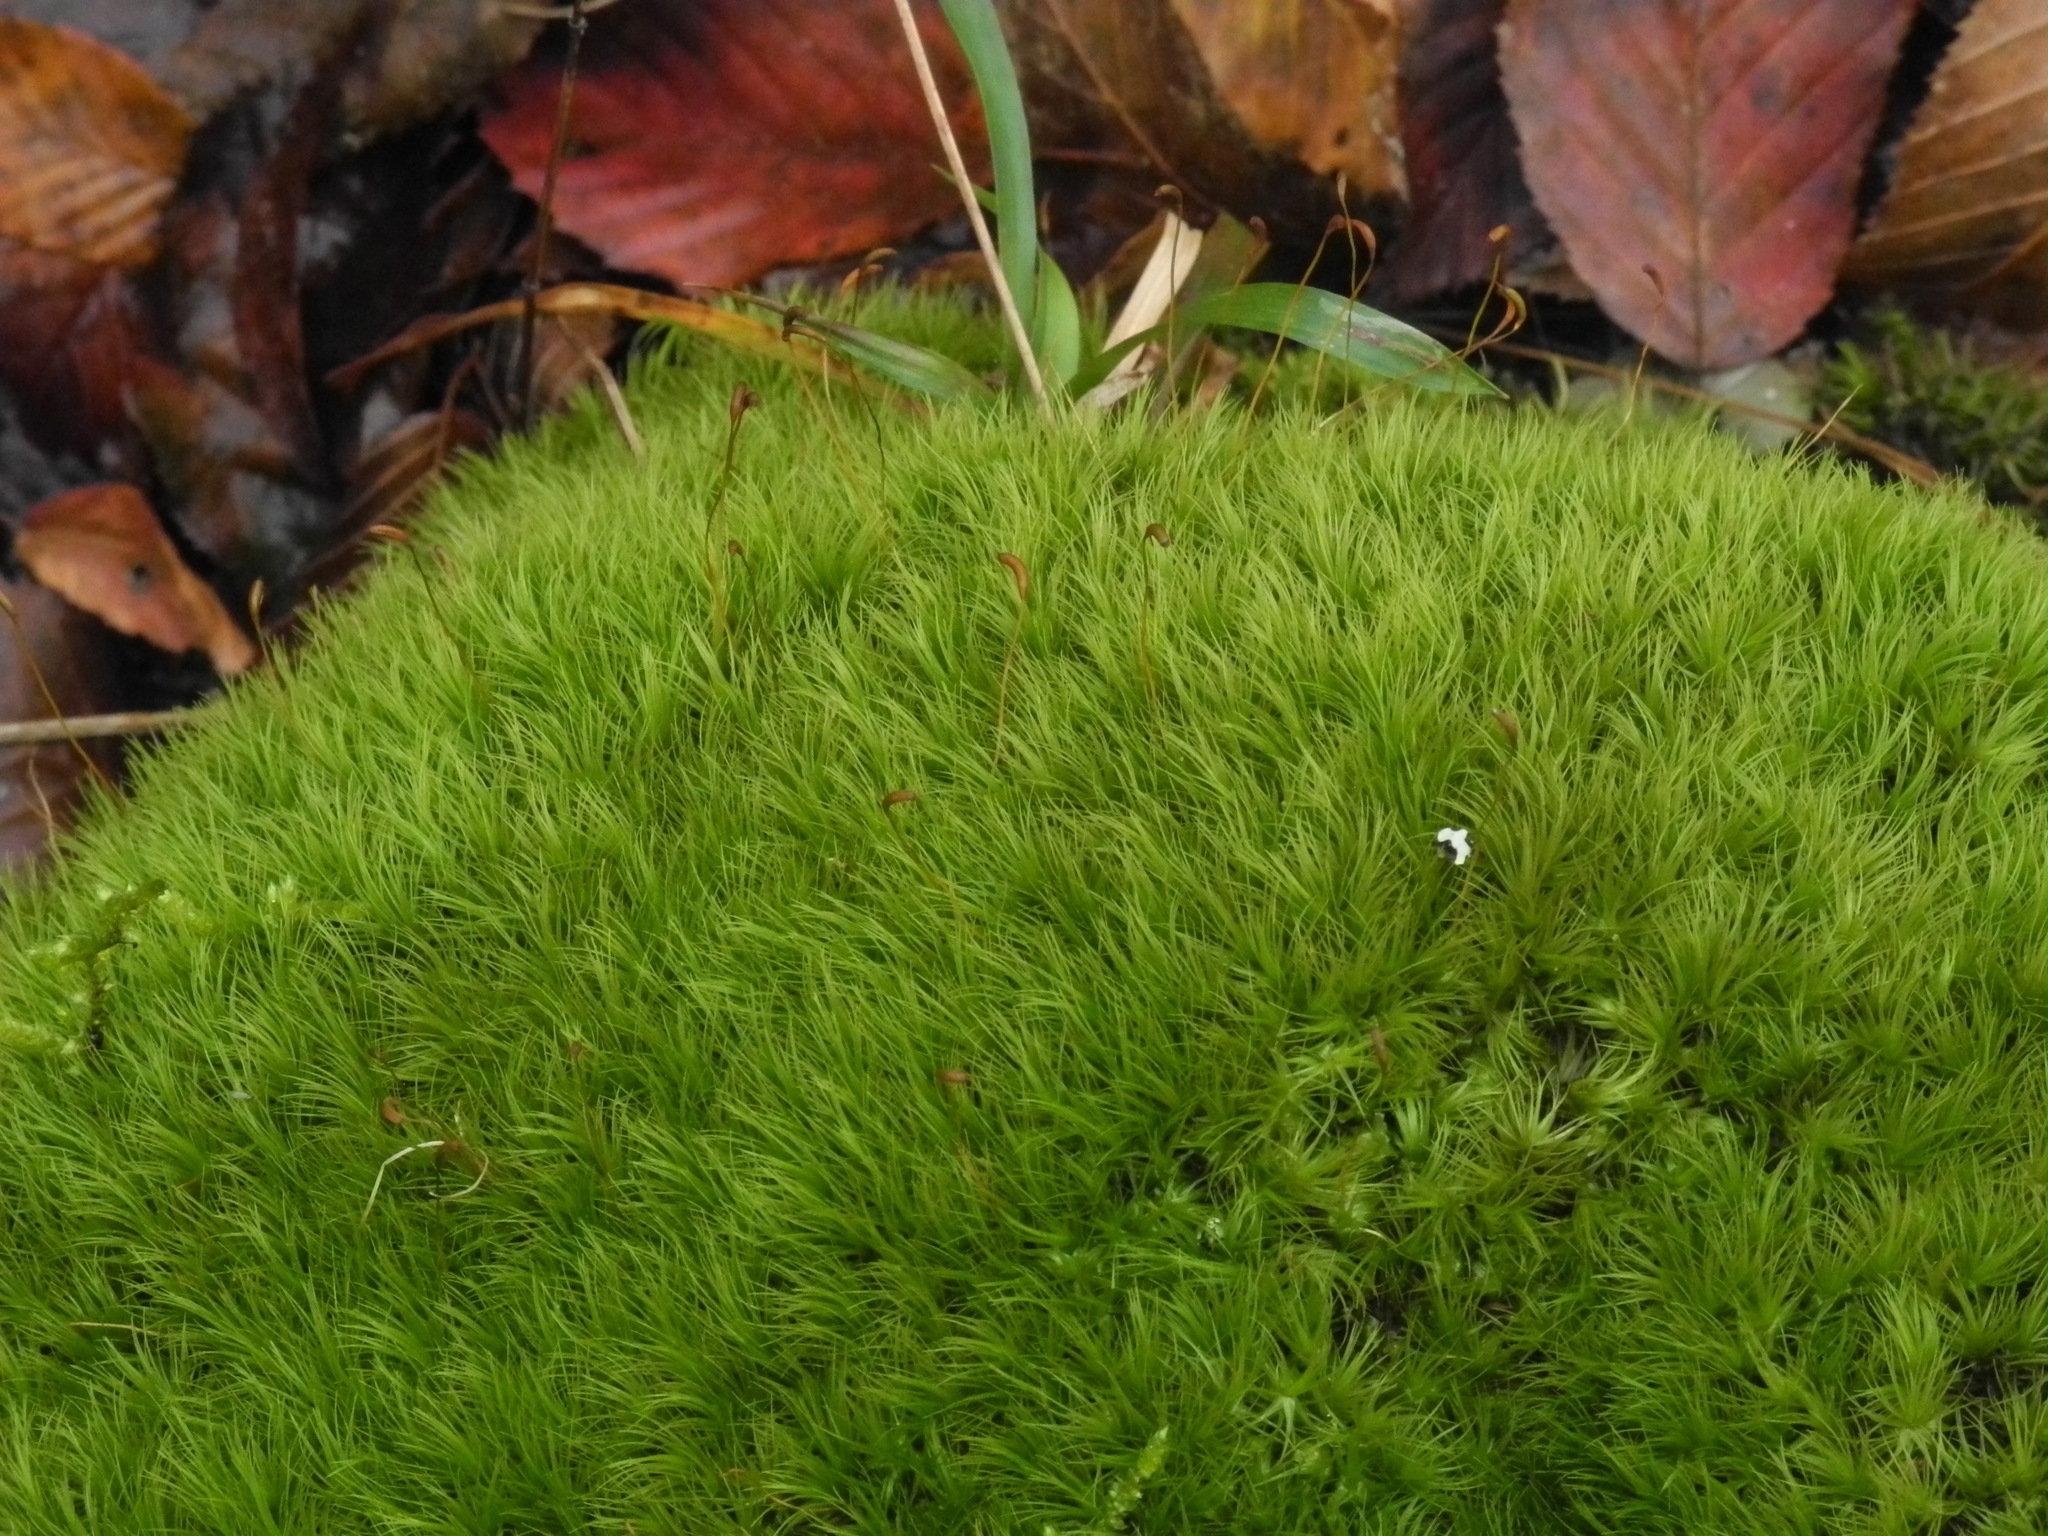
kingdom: Plantae
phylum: Bryophyta
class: Bryopsida
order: Dicranales
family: Dicranaceae
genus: Dicranum
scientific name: Dicranum scoparium
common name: Broom fork-moss
